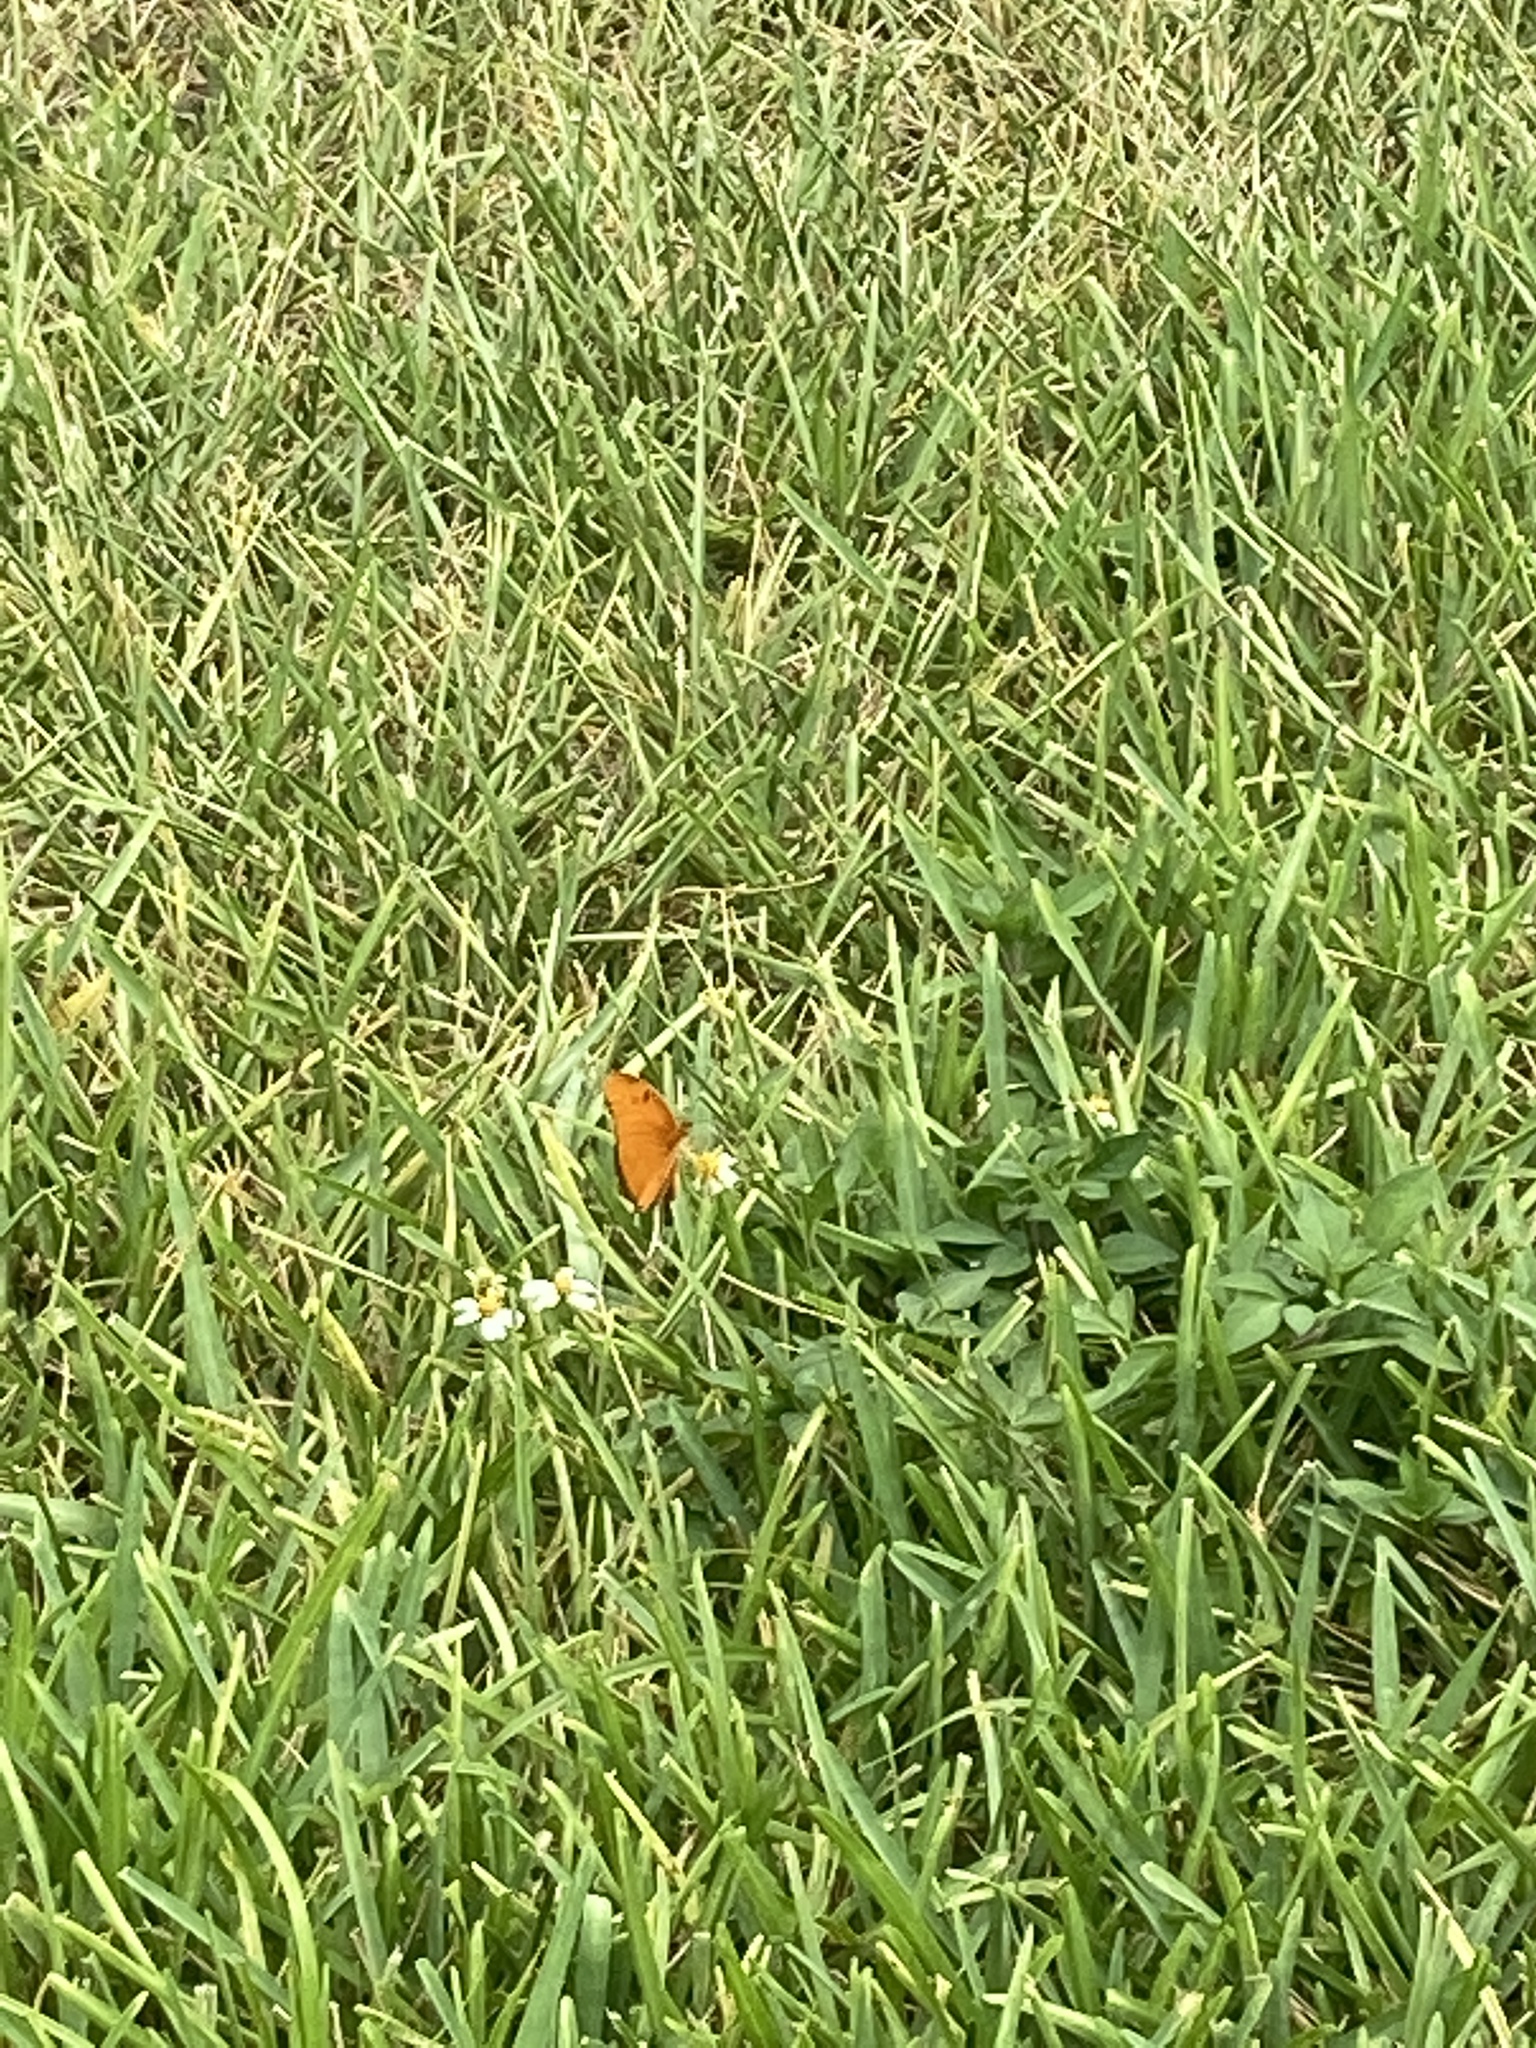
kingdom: Animalia
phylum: Arthropoda
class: Insecta
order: Lepidoptera
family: Nymphalidae
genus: Dryas
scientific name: Dryas iulia
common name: Flambeau
